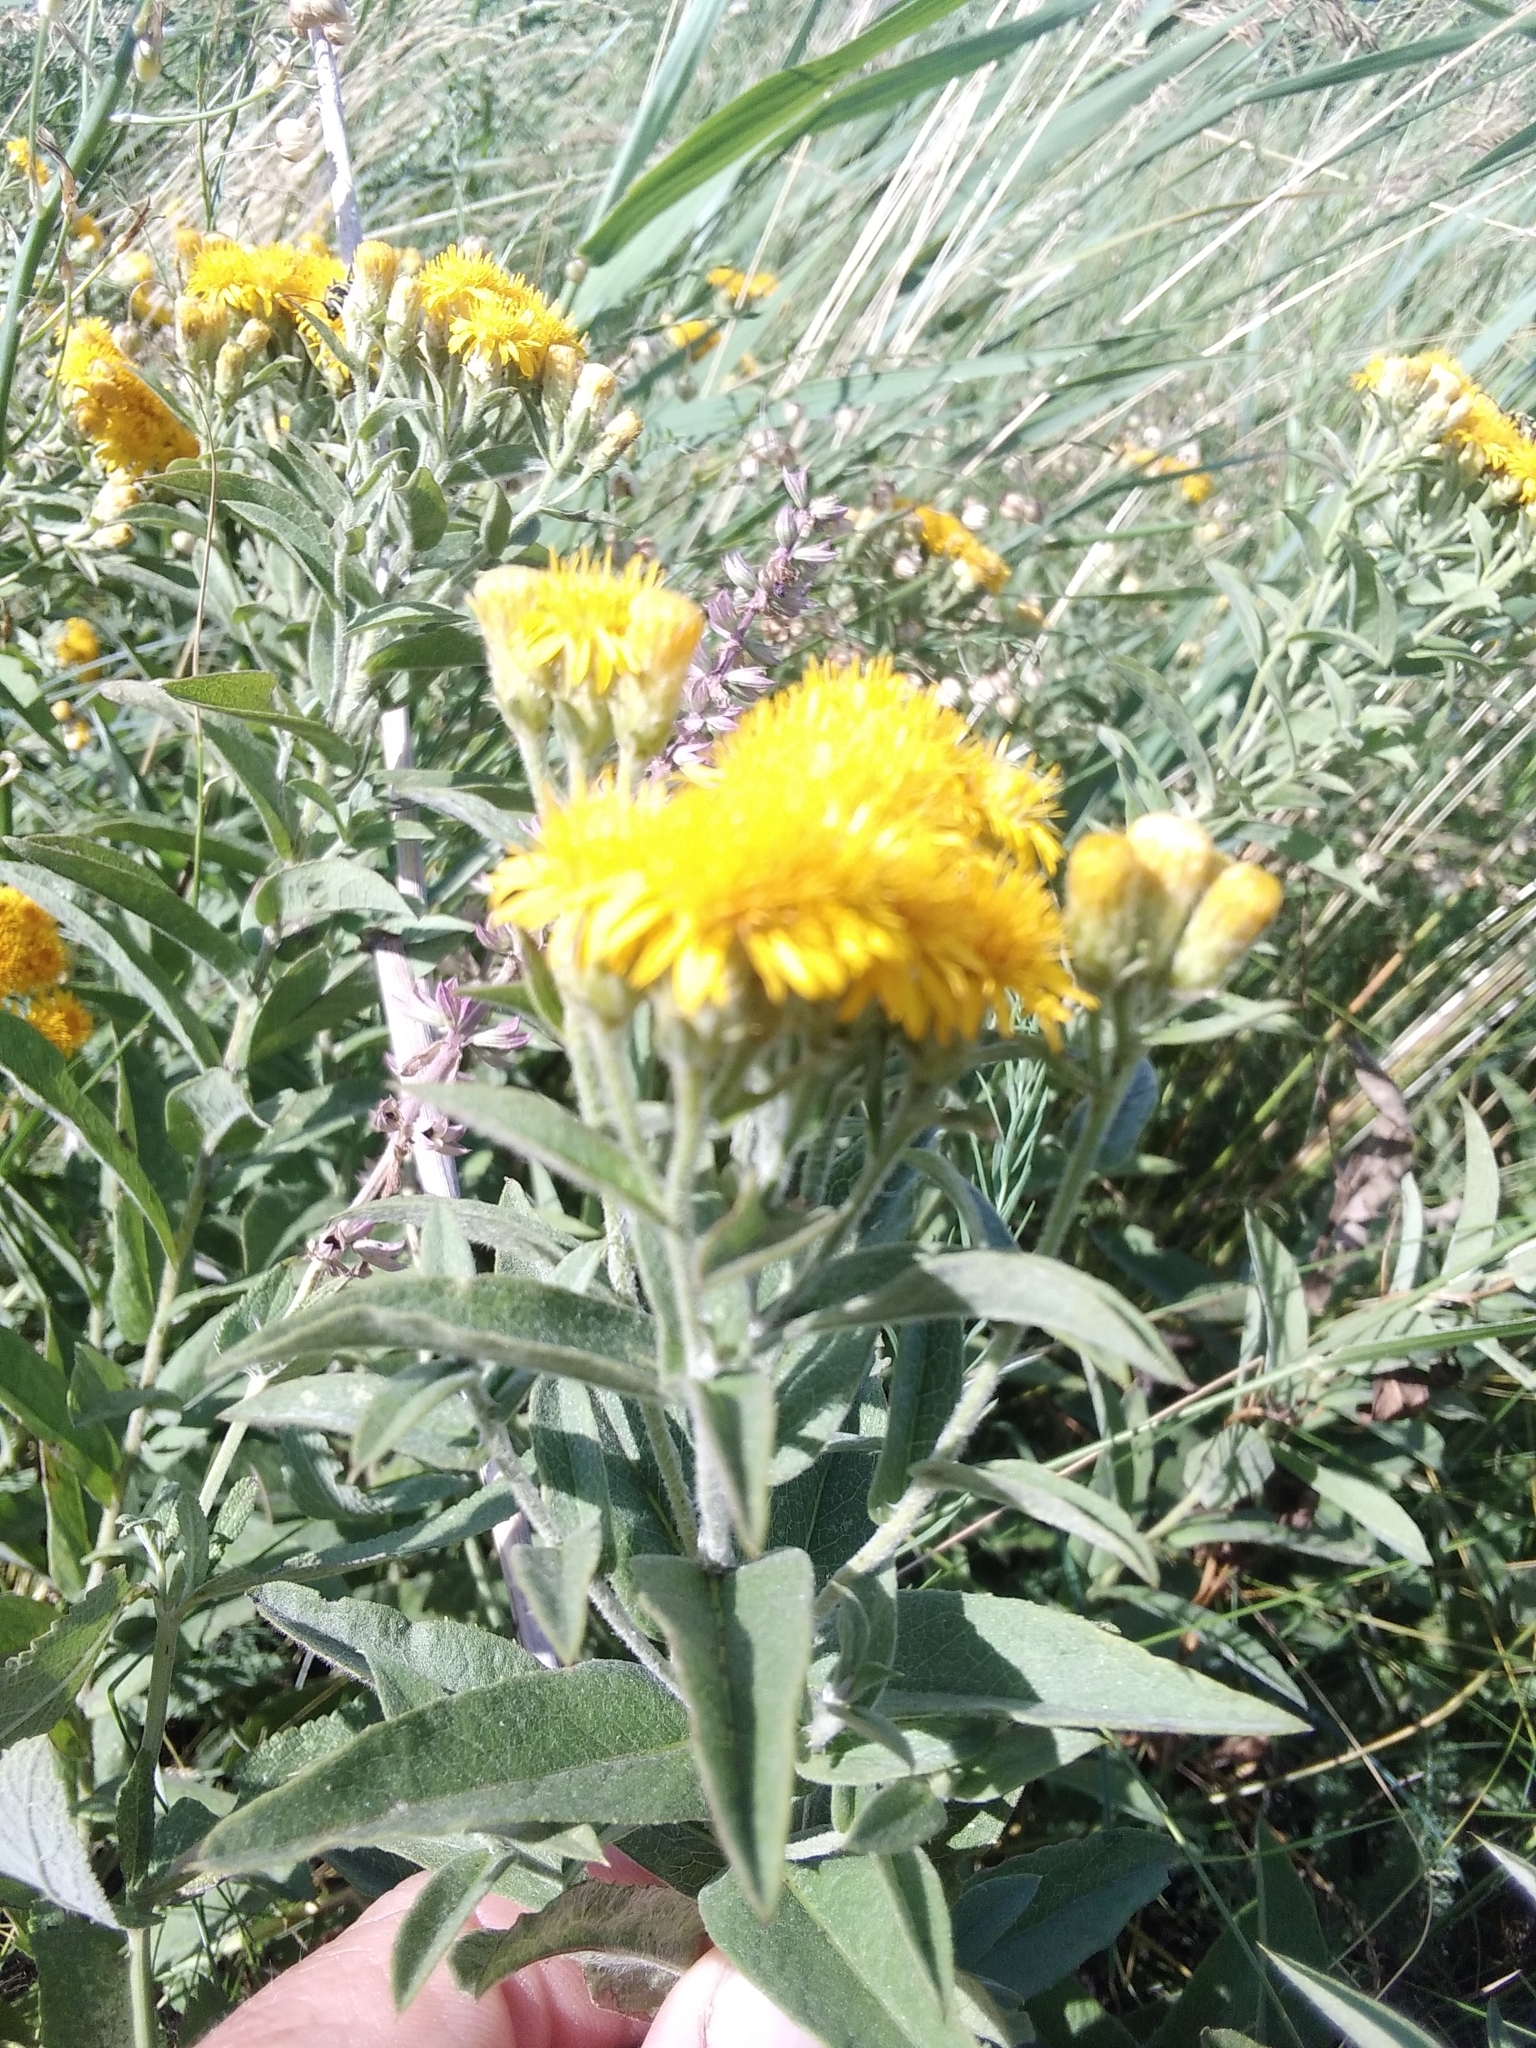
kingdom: Plantae
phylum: Tracheophyta
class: Magnoliopsida
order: Asterales
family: Asteraceae
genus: Pentanema
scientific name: Pentanema germanicum
